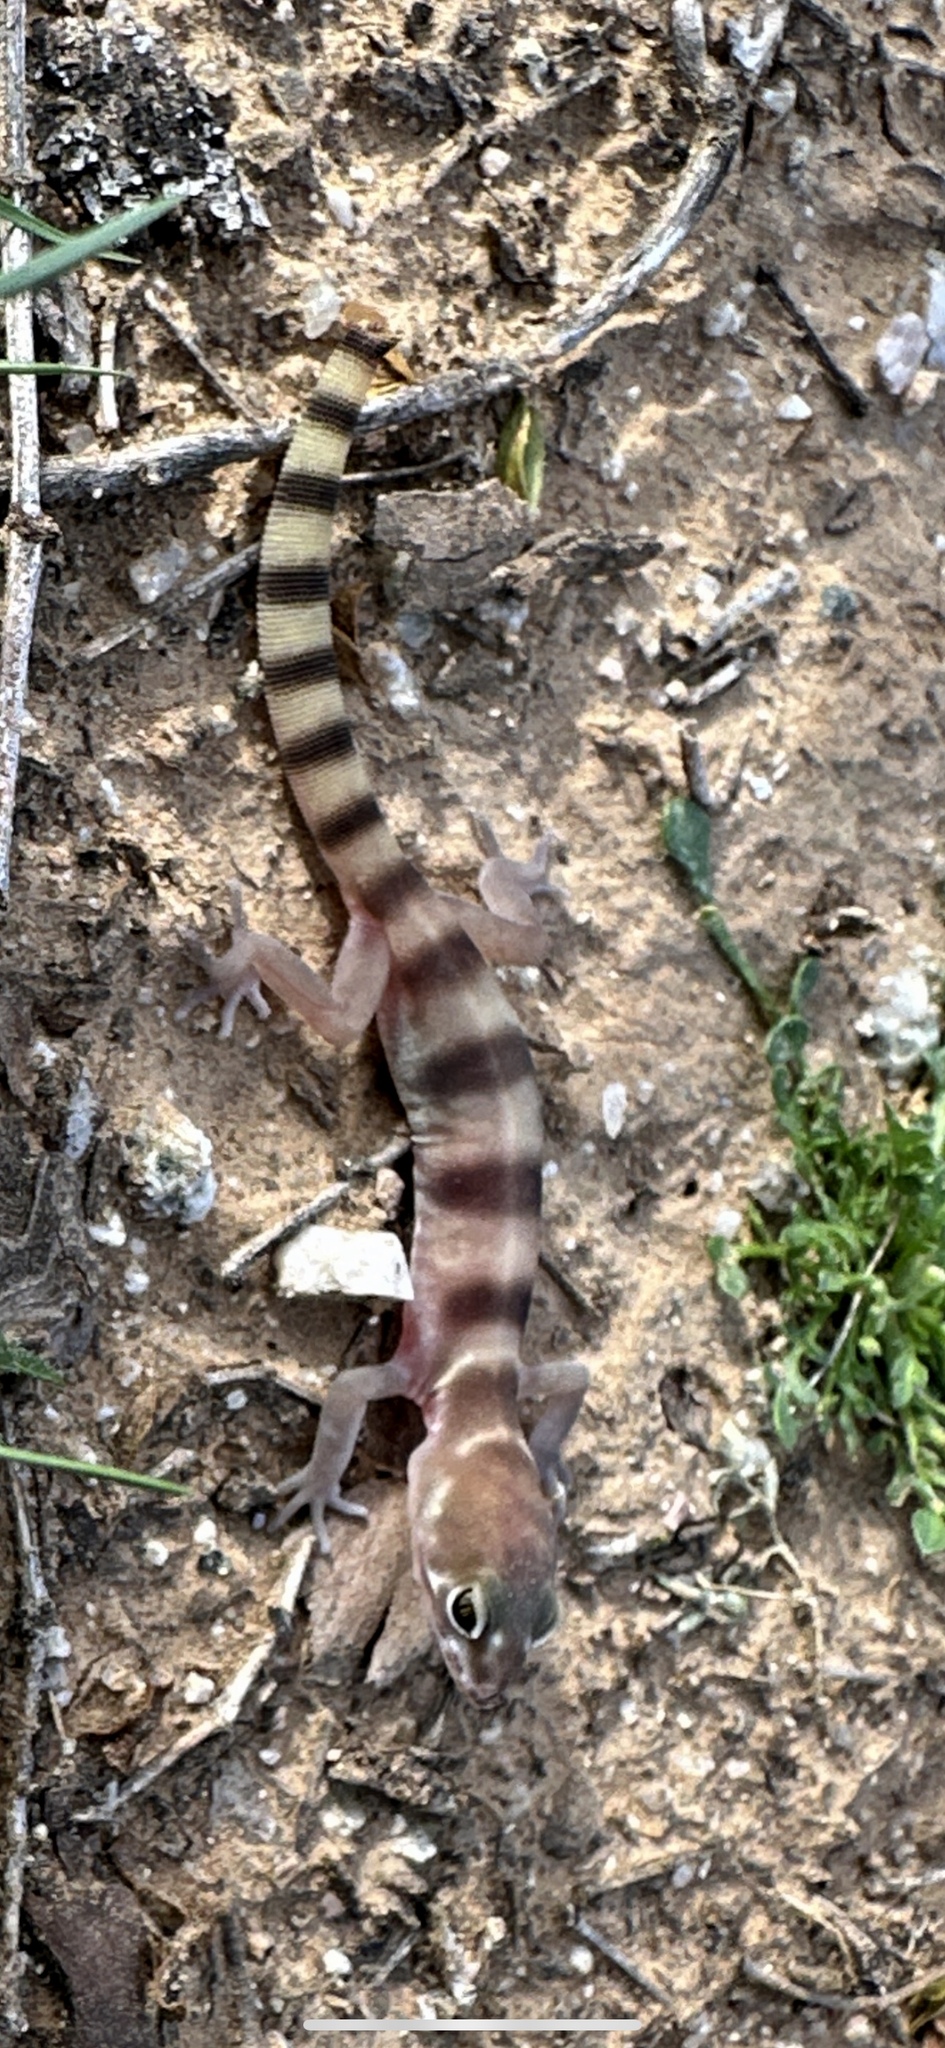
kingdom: Animalia
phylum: Chordata
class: Squamata
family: Eublepharidae
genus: Coleonyx
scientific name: Coleonyx variegatus
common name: Western banded gecko
